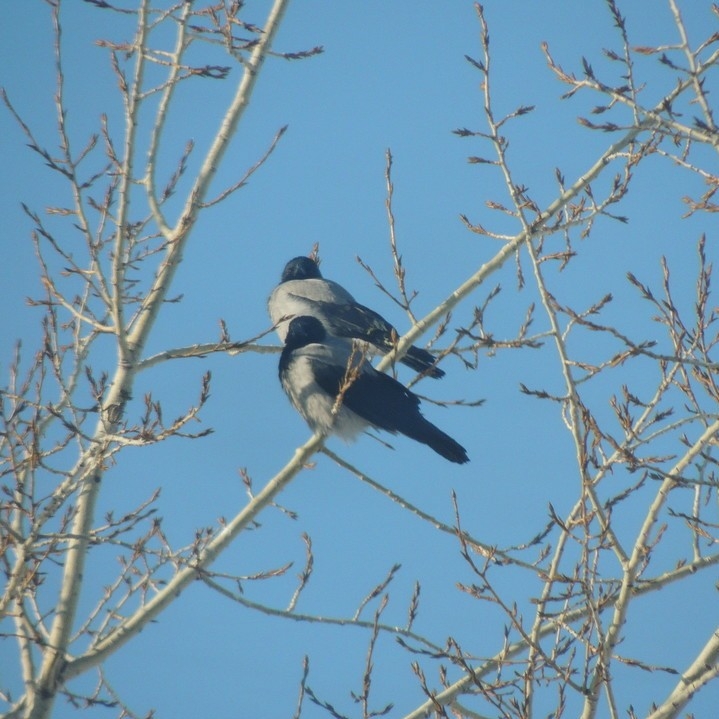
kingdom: Animalia
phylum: Chordata
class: Aves
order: Passeriformes
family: Corvidae
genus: Corvus
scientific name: Corvus cornix
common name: Hooded crow
